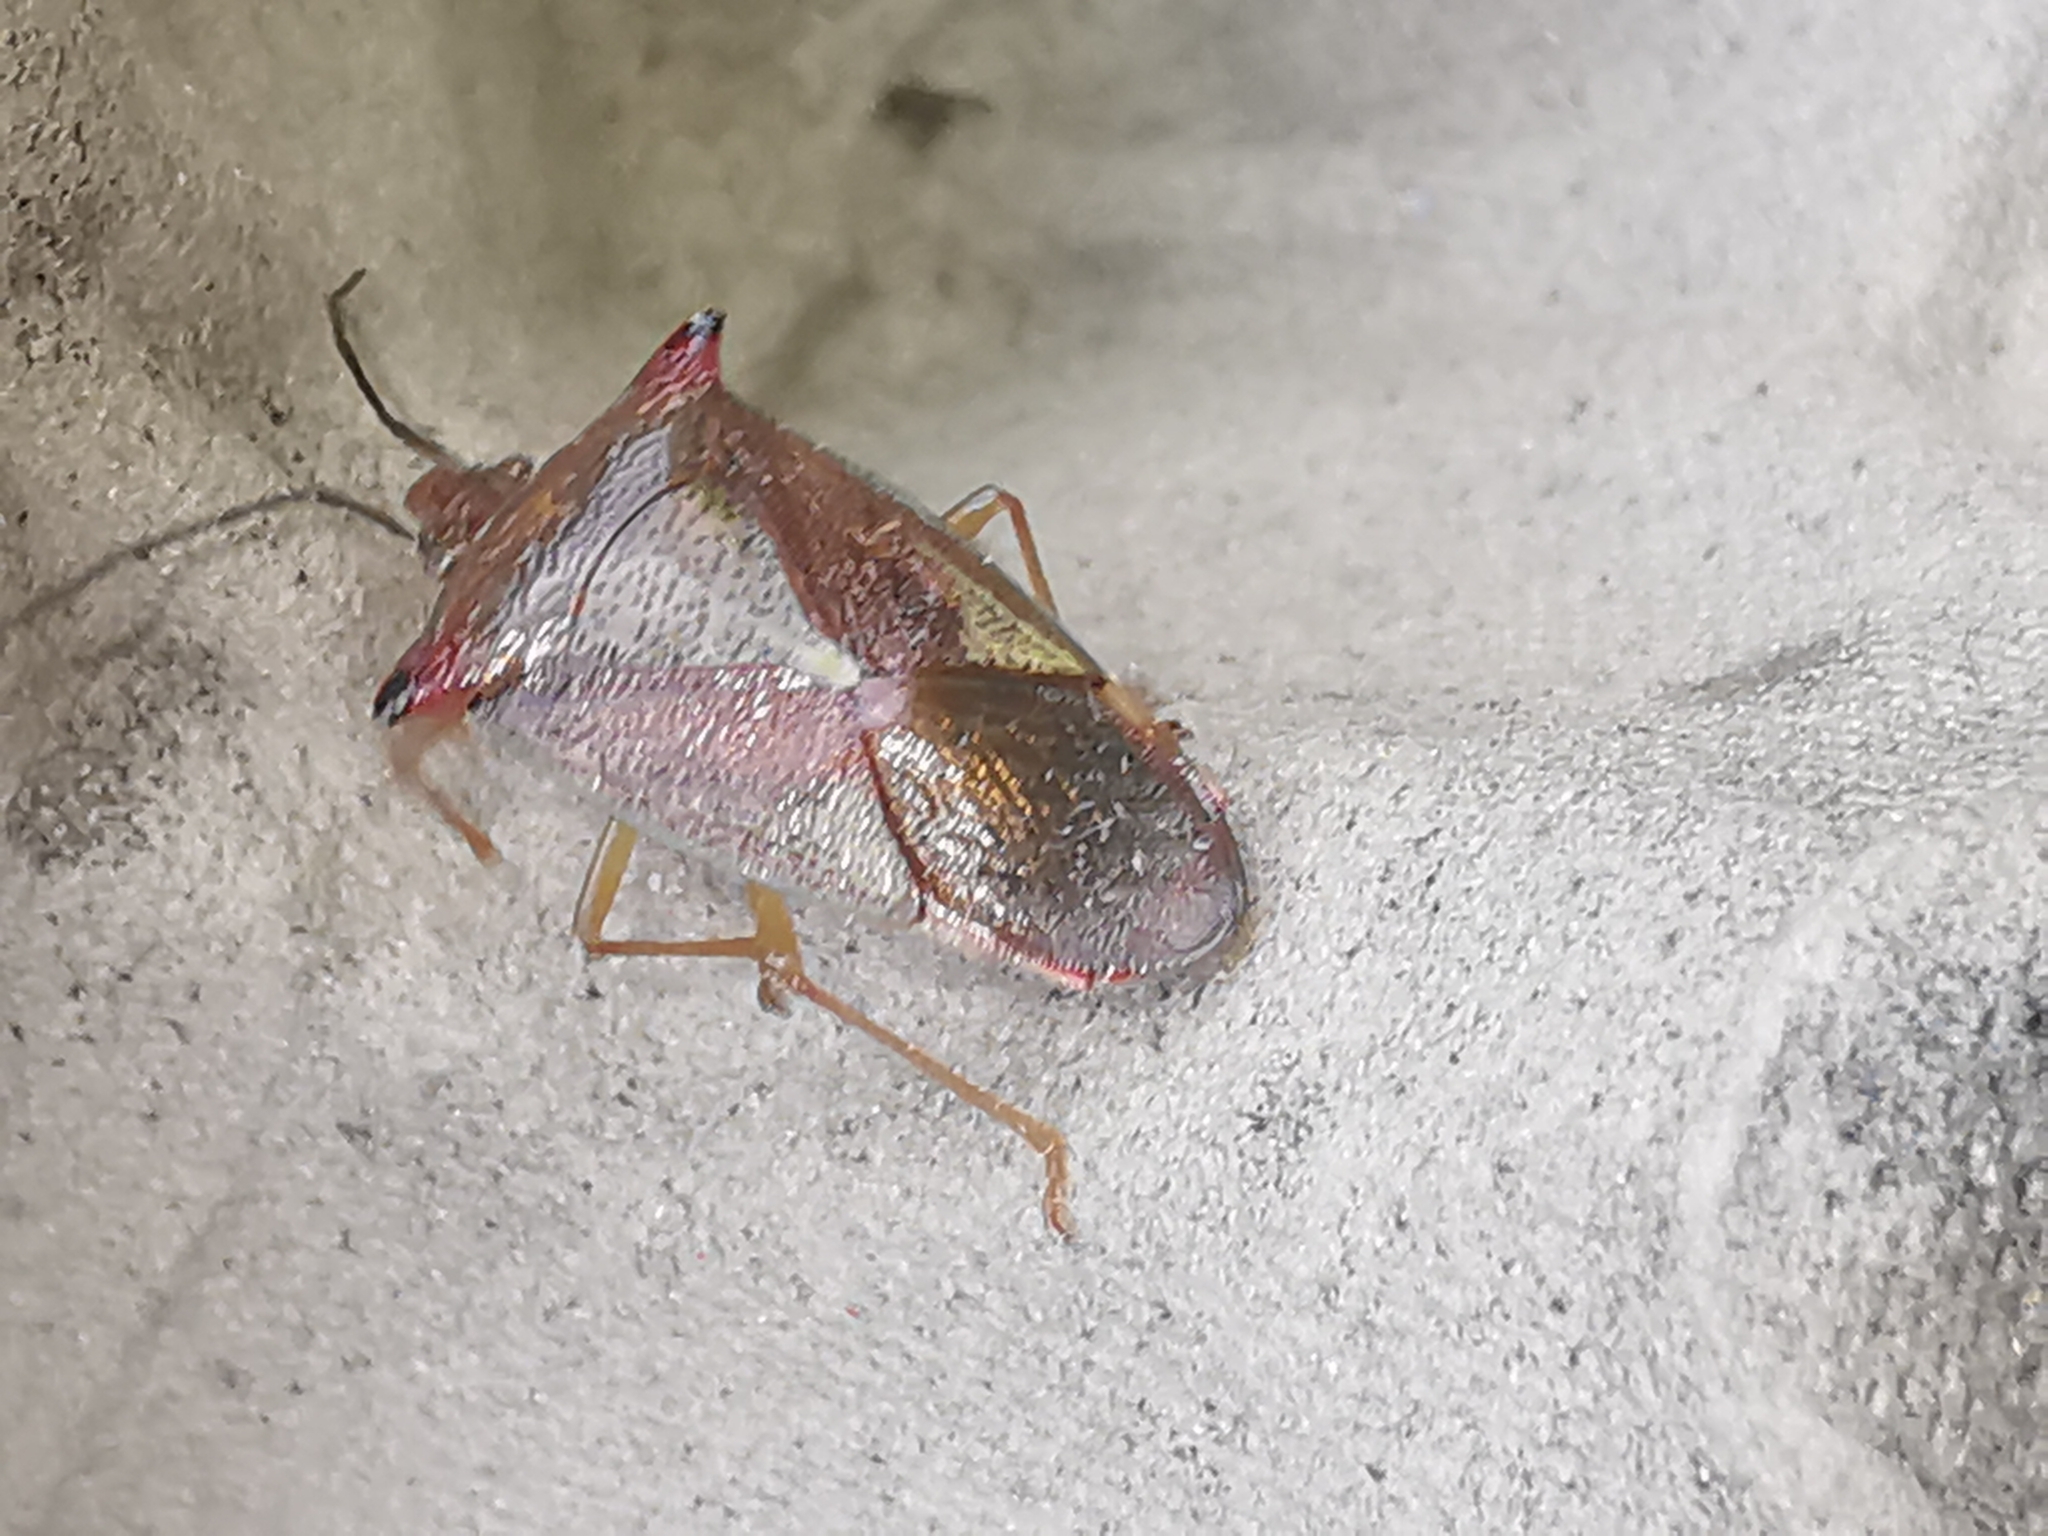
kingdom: Animalia
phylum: Arthropoda
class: Insecta
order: Hemiptera
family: Acanthosomatidae
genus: Acanthosoma
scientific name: Acanthosoma haemorrhoidale
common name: Hawthorn shieldbug
